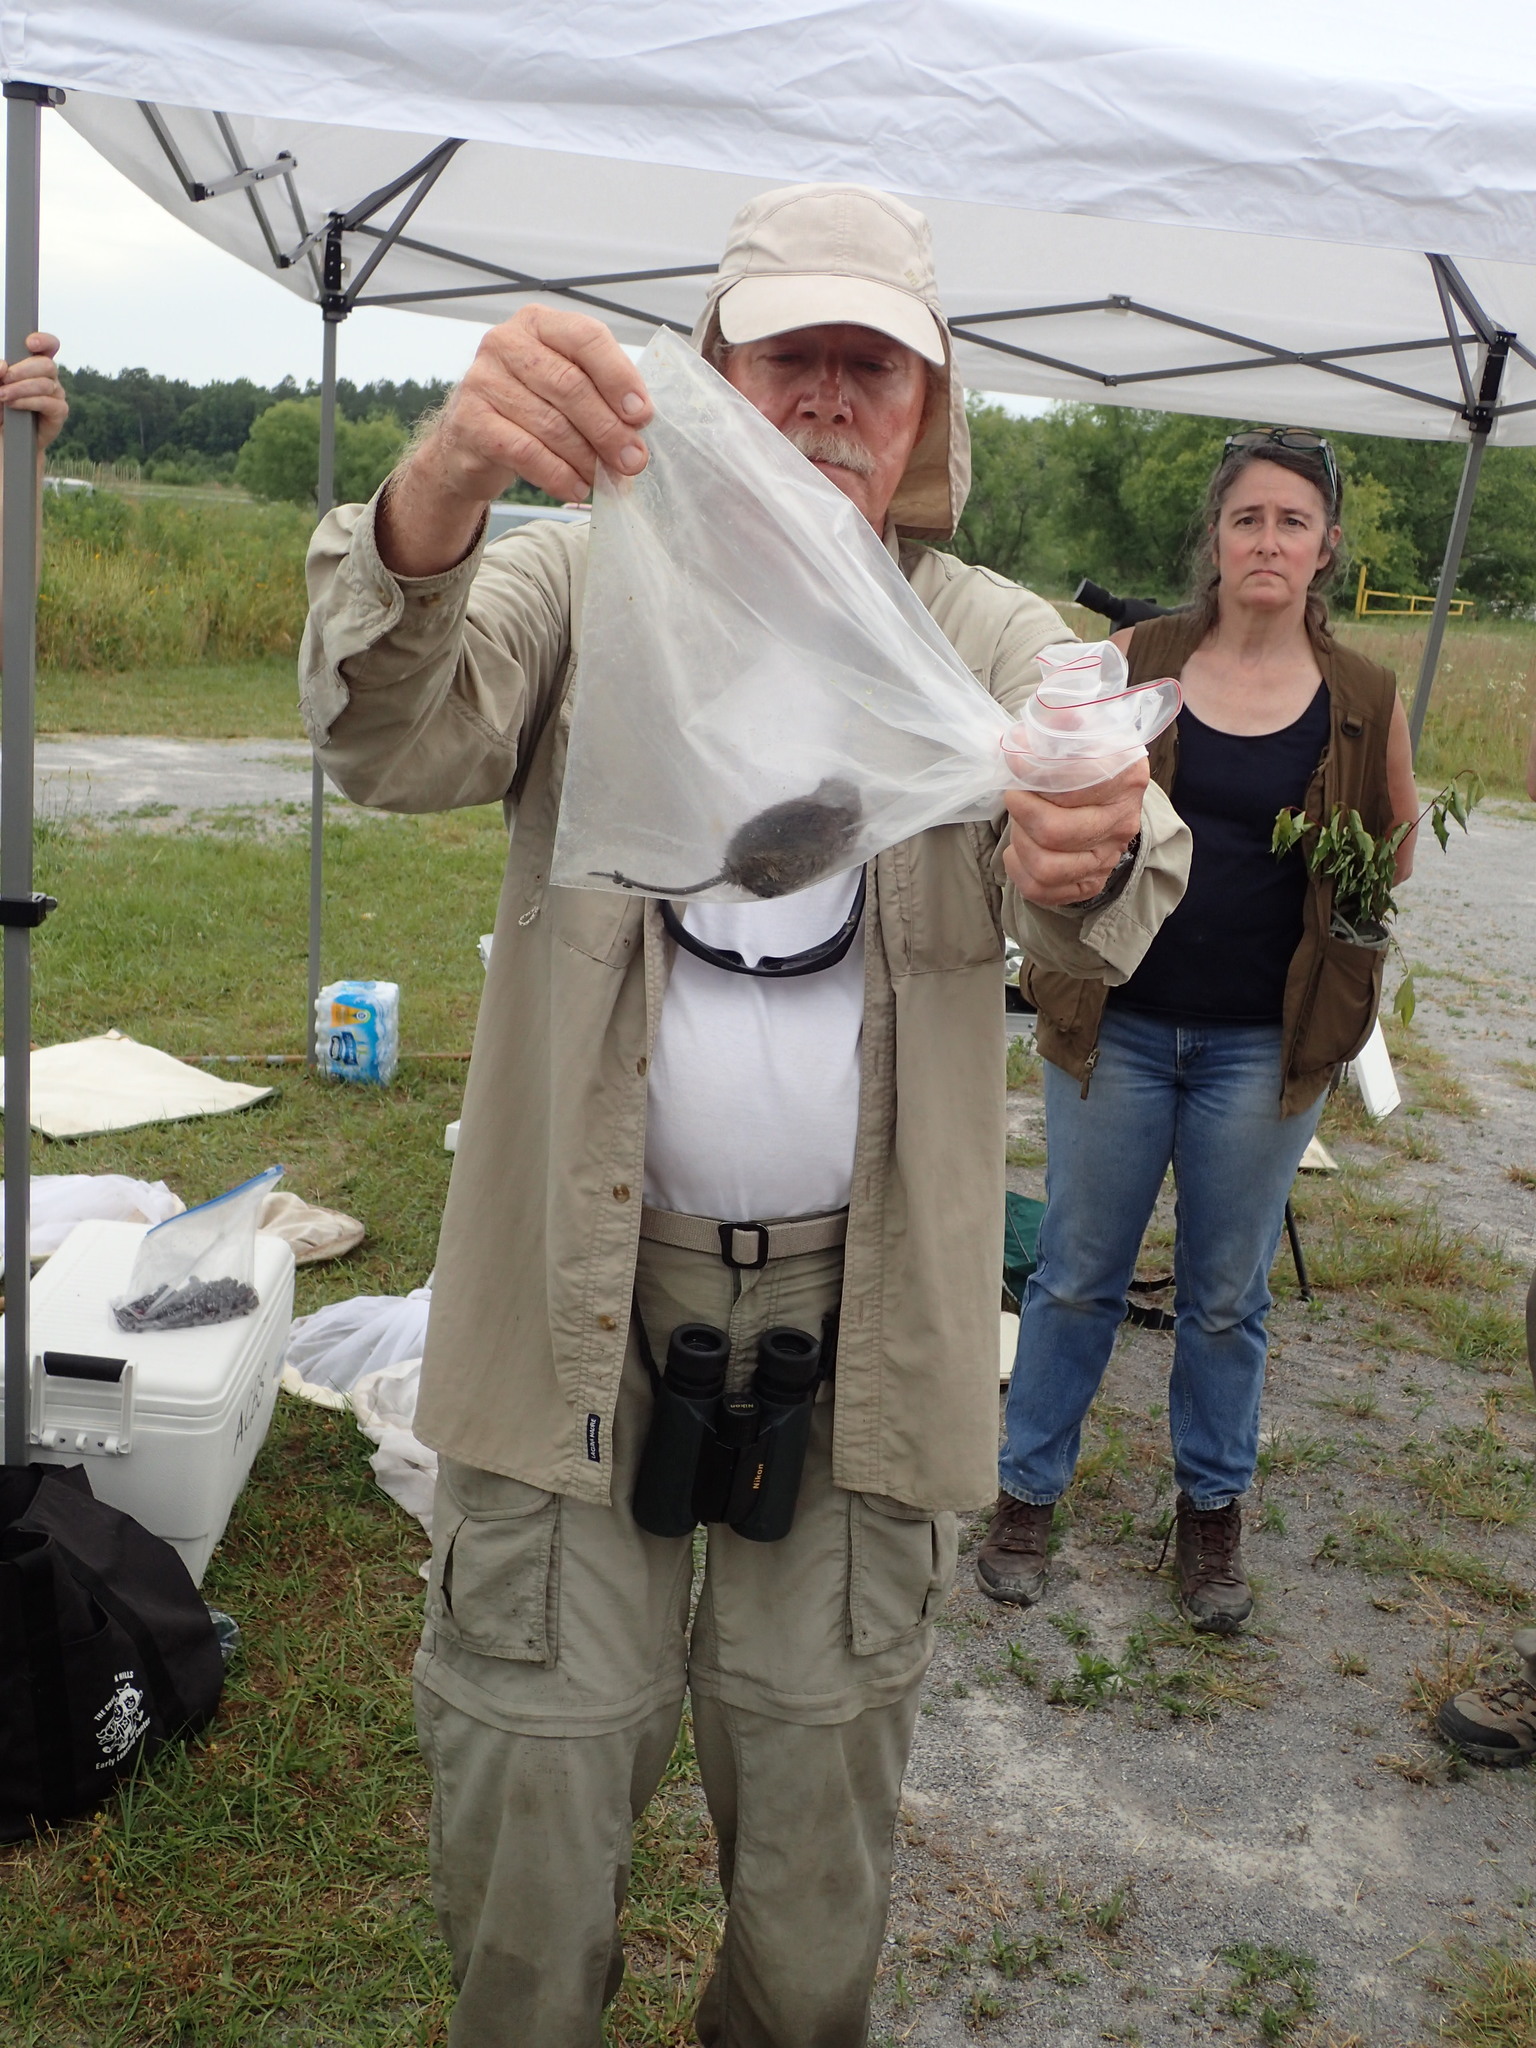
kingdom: Animalia
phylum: Chordata
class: Mammalia
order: Rodentia
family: Cricetidae
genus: Sigmodon
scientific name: Sigmodon hispidus
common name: Hispid cotton rat
